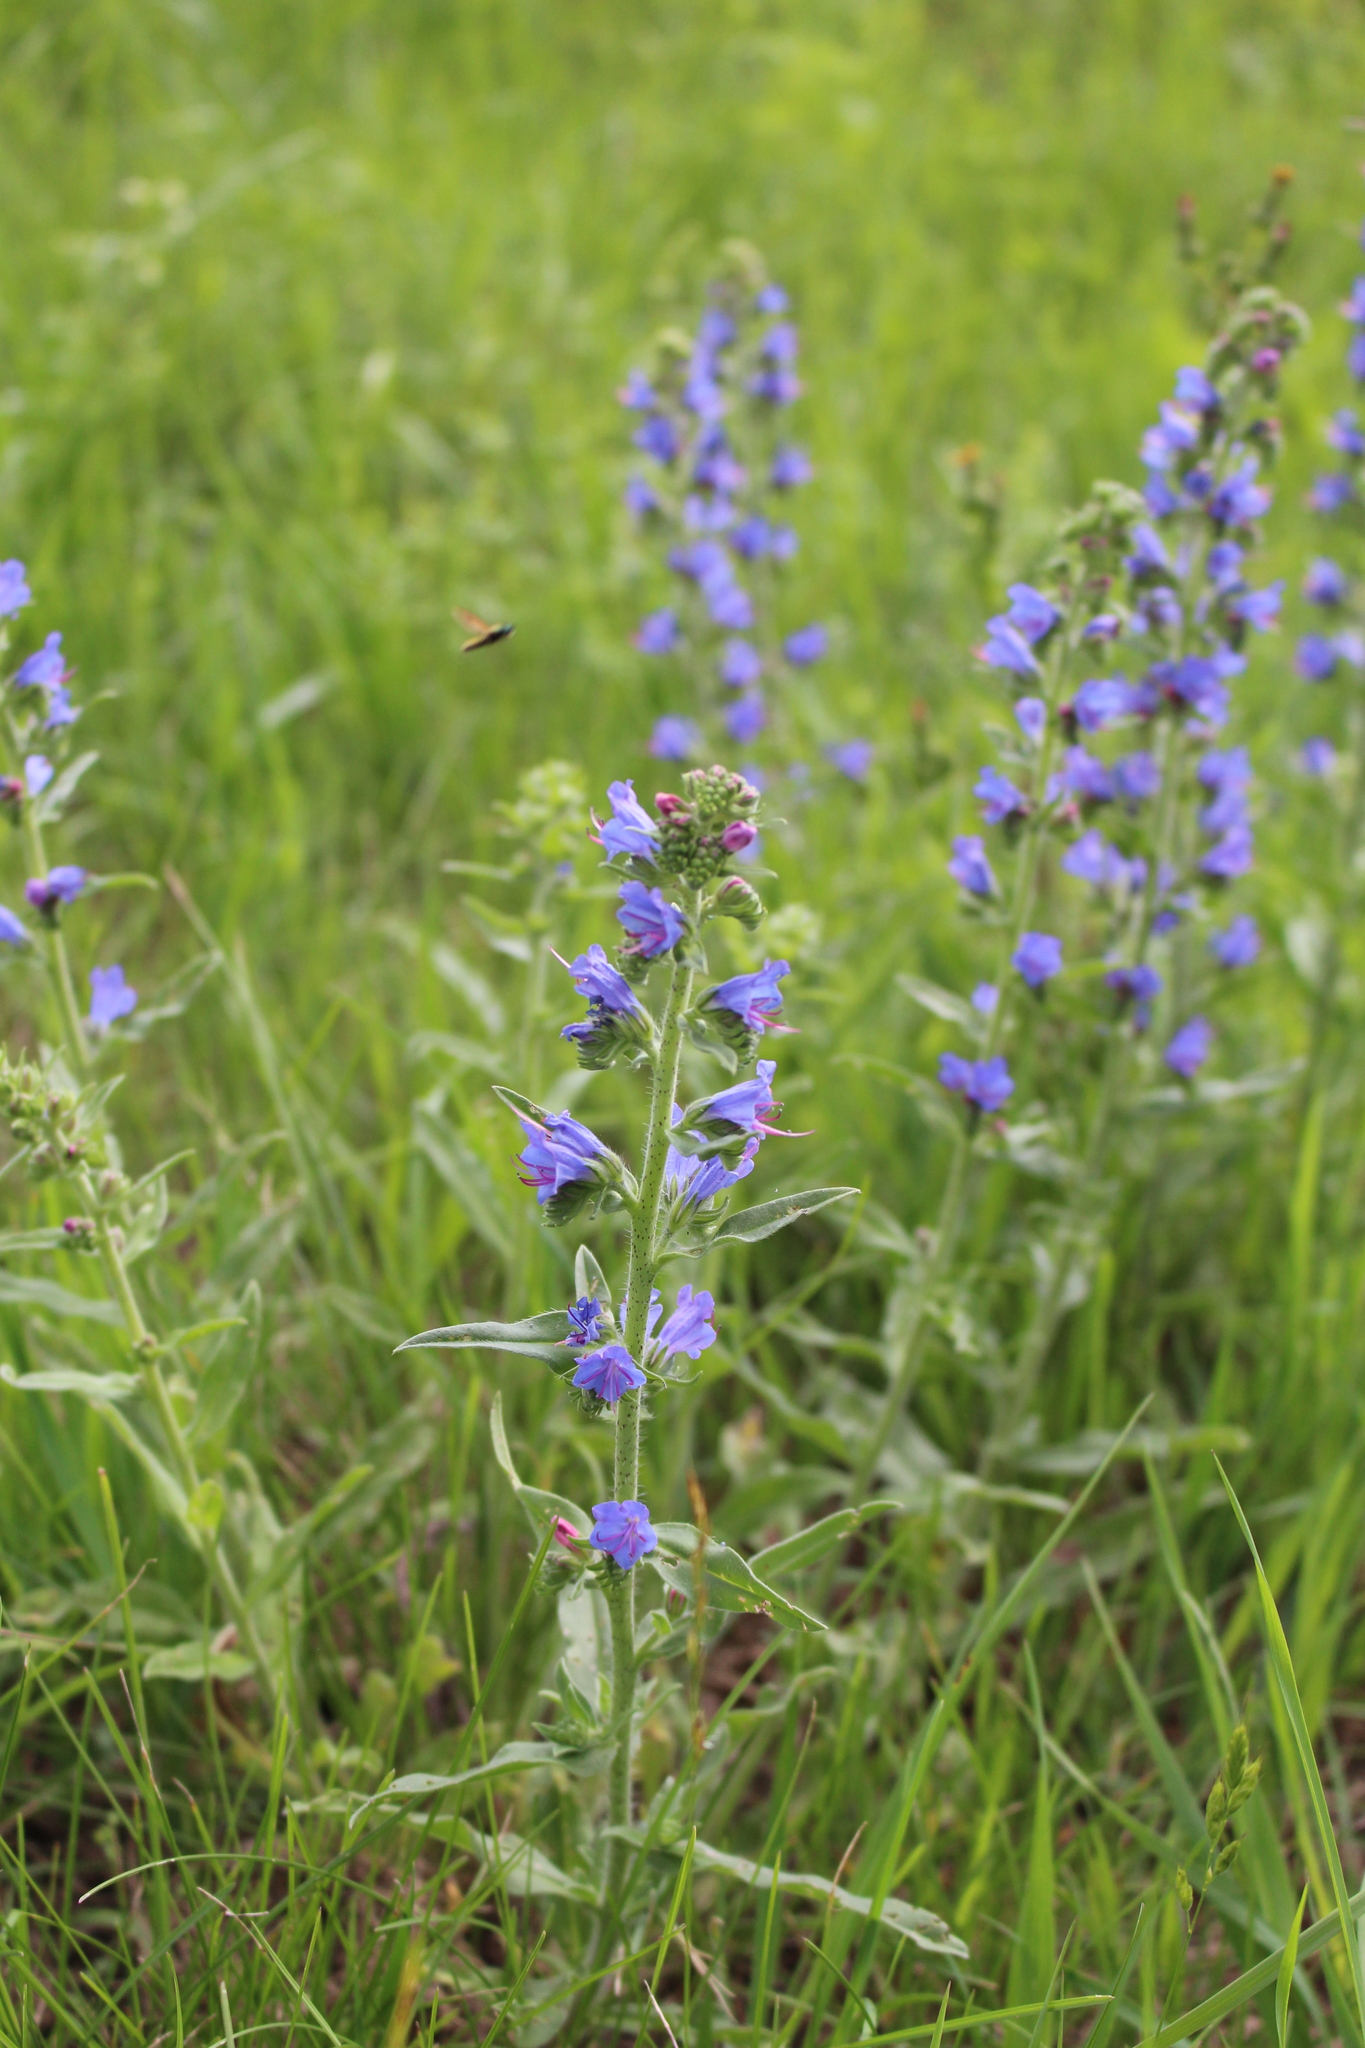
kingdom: Plantae
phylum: Tracheophyta
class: Magnoliopsida
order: Boraginales
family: Boraginaceae
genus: Echium
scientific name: Echium vulgare
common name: Common viper's bugloss
